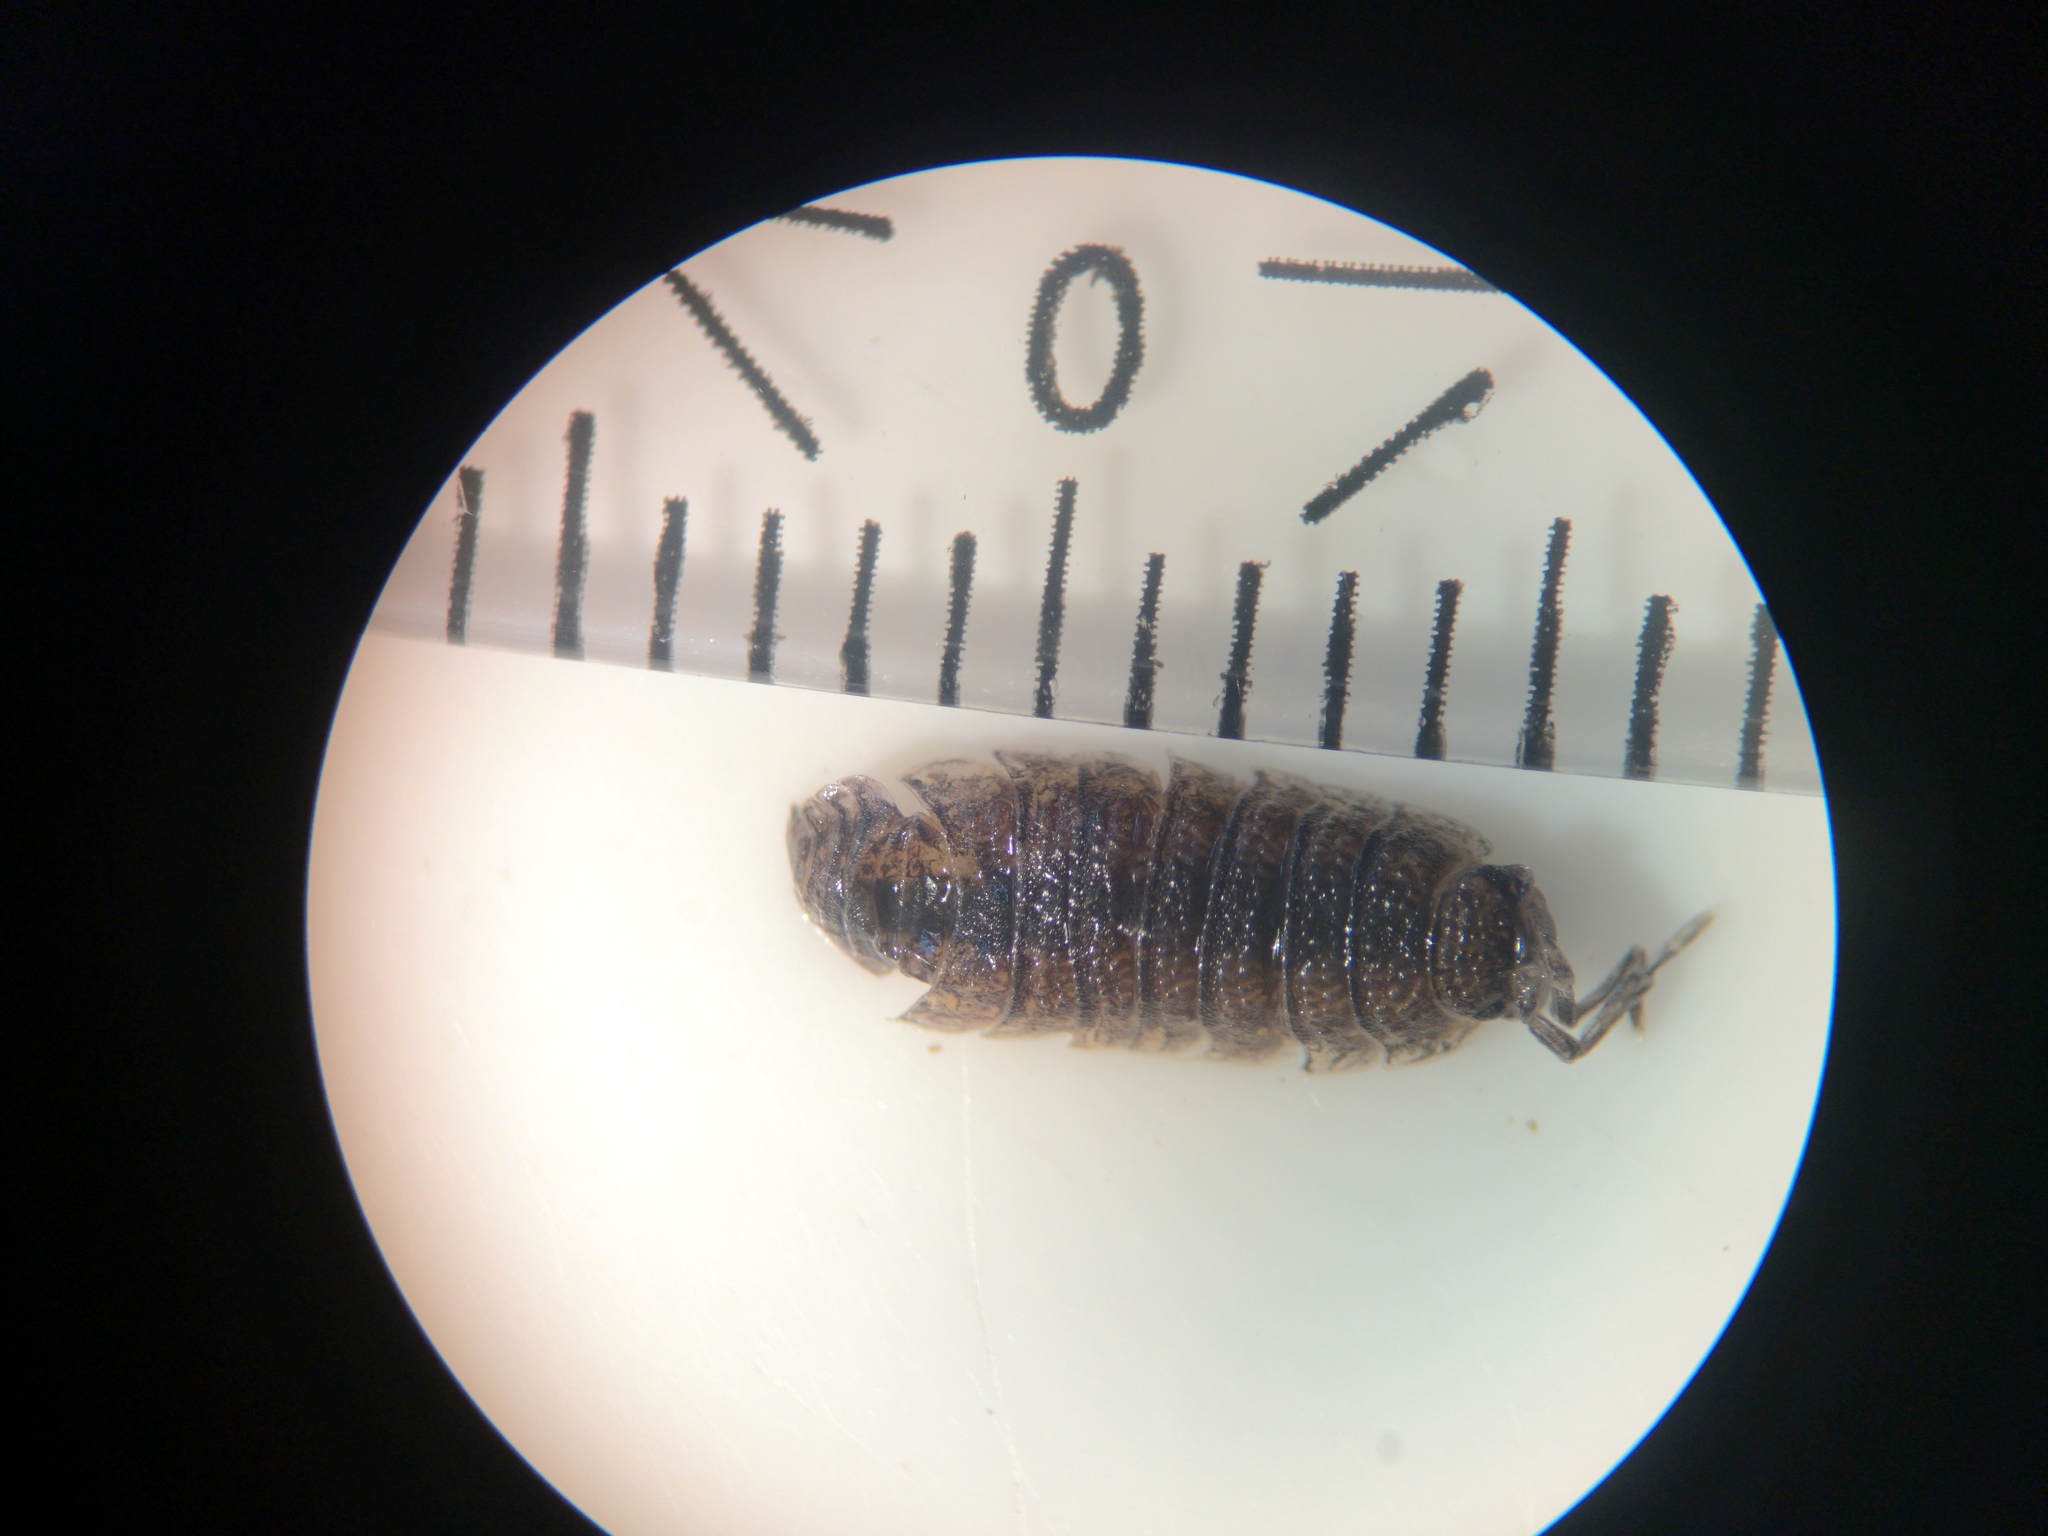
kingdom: Animalia
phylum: Arthropoda
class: Malacostraca
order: Isopoda
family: Porcellionidae
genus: Porcellio
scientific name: Porcellio scaber
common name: Common rough woodlouse
